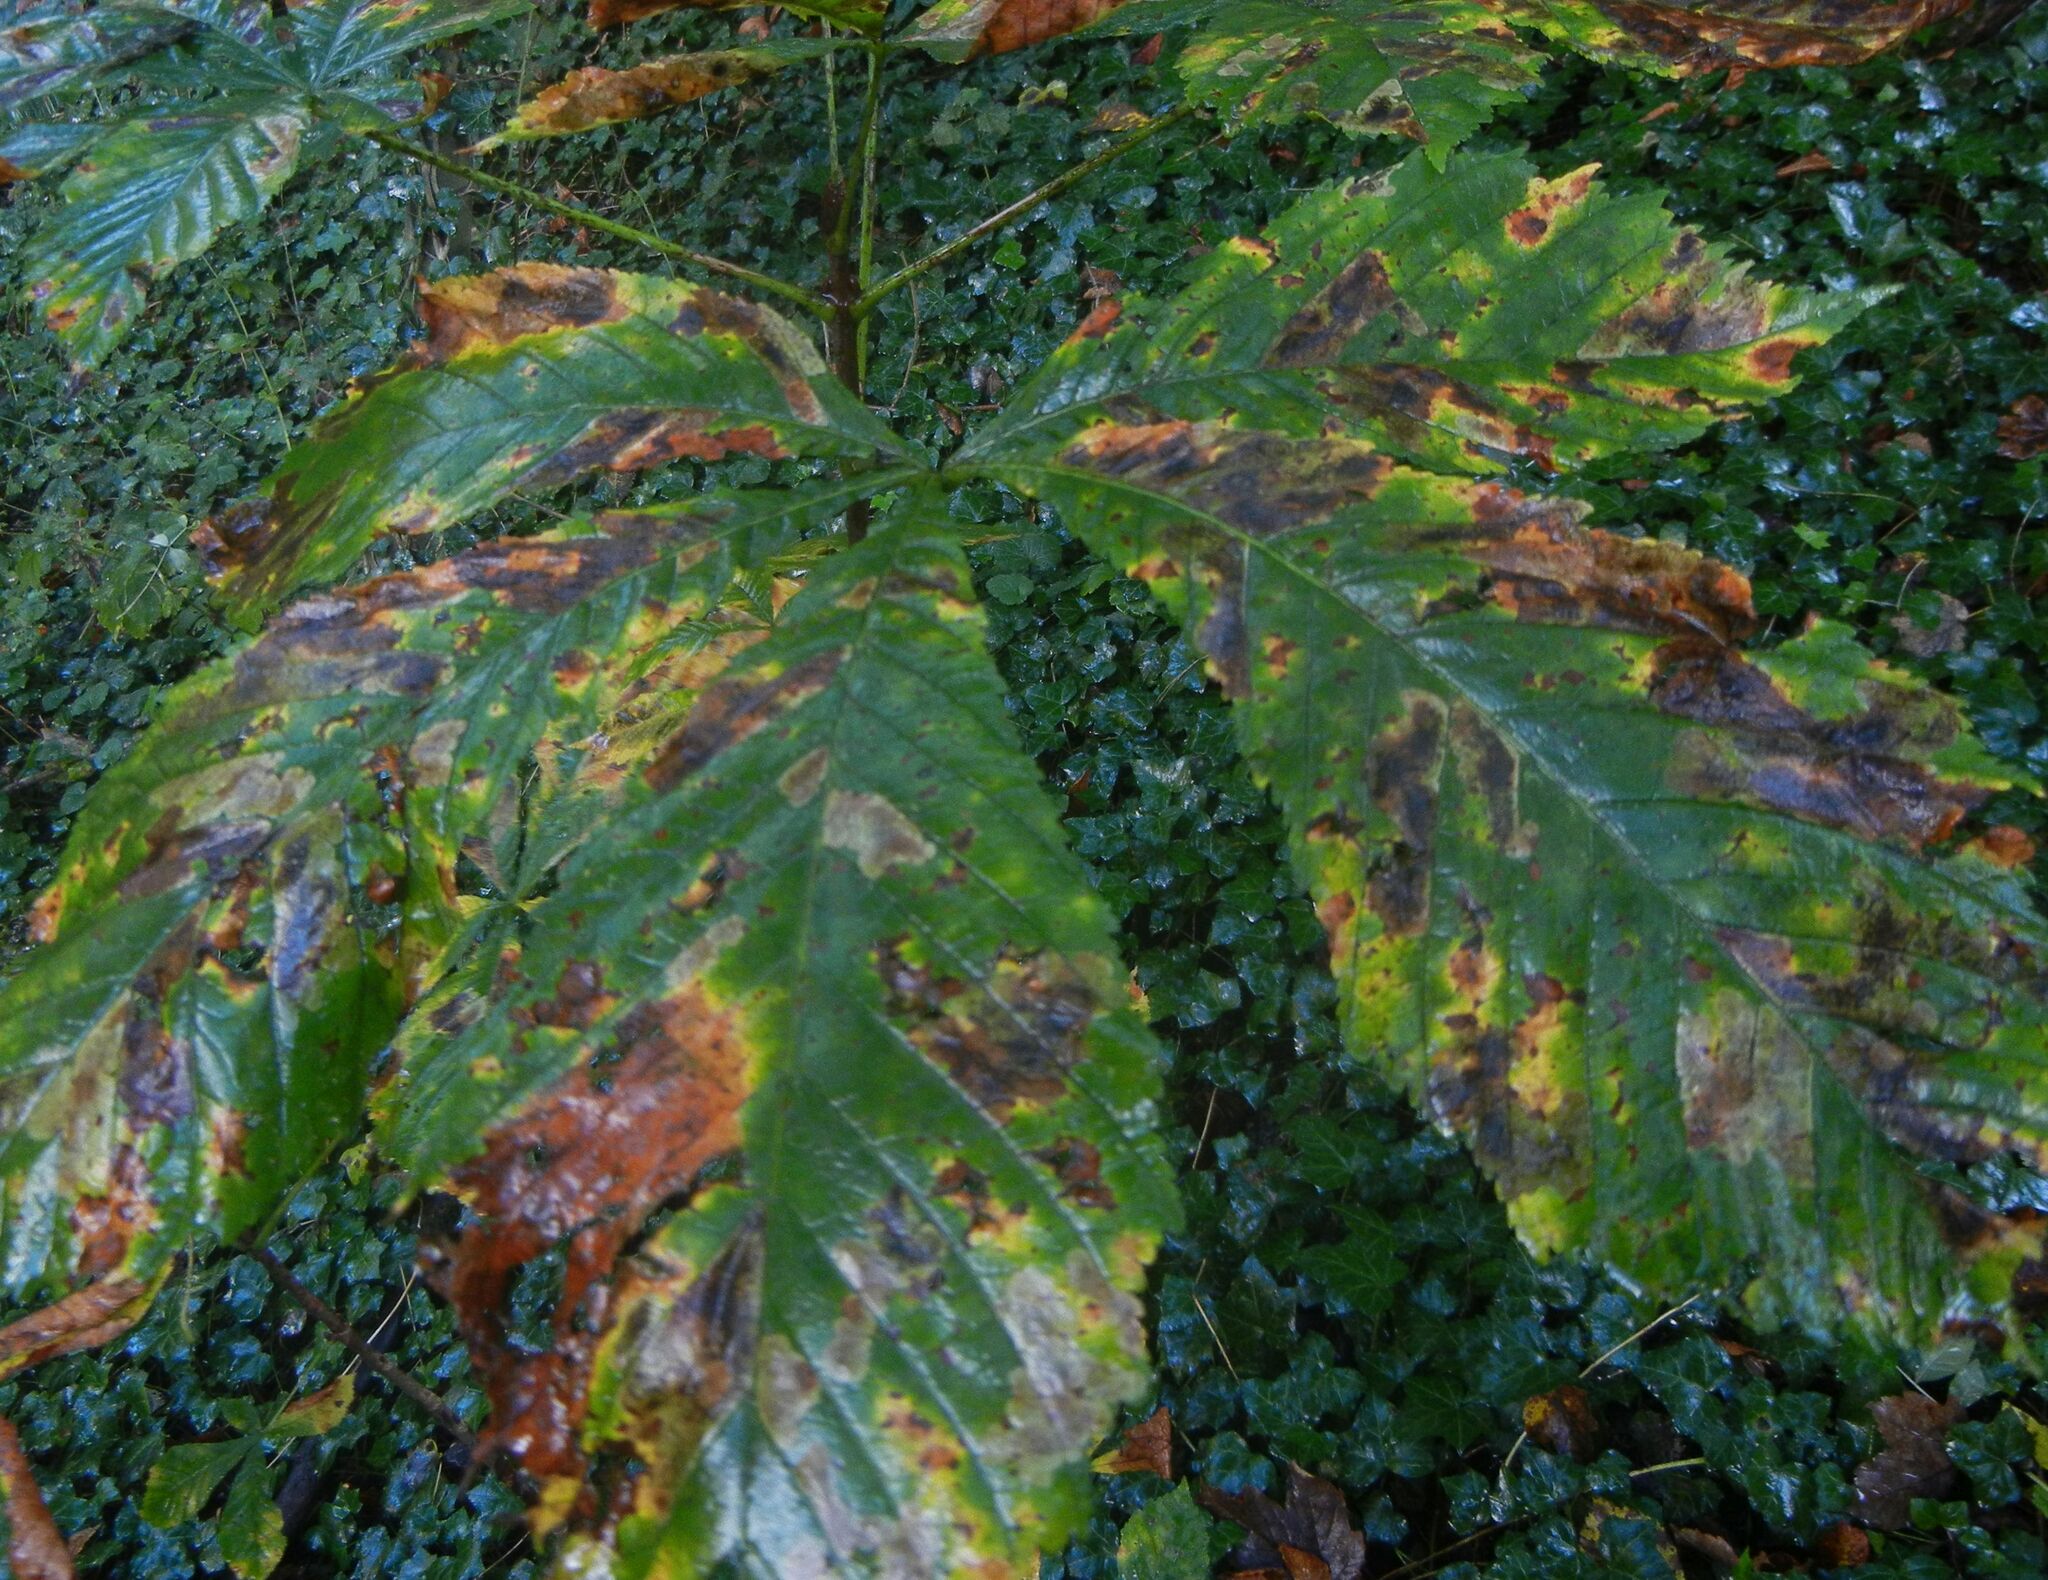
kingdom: Animalia
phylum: Arthropoda
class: Insecta
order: Lepidoptera
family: Gracillariidae
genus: Cameraria
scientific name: Cameraria ohridella
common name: Horse-chestnut leaf-miner
